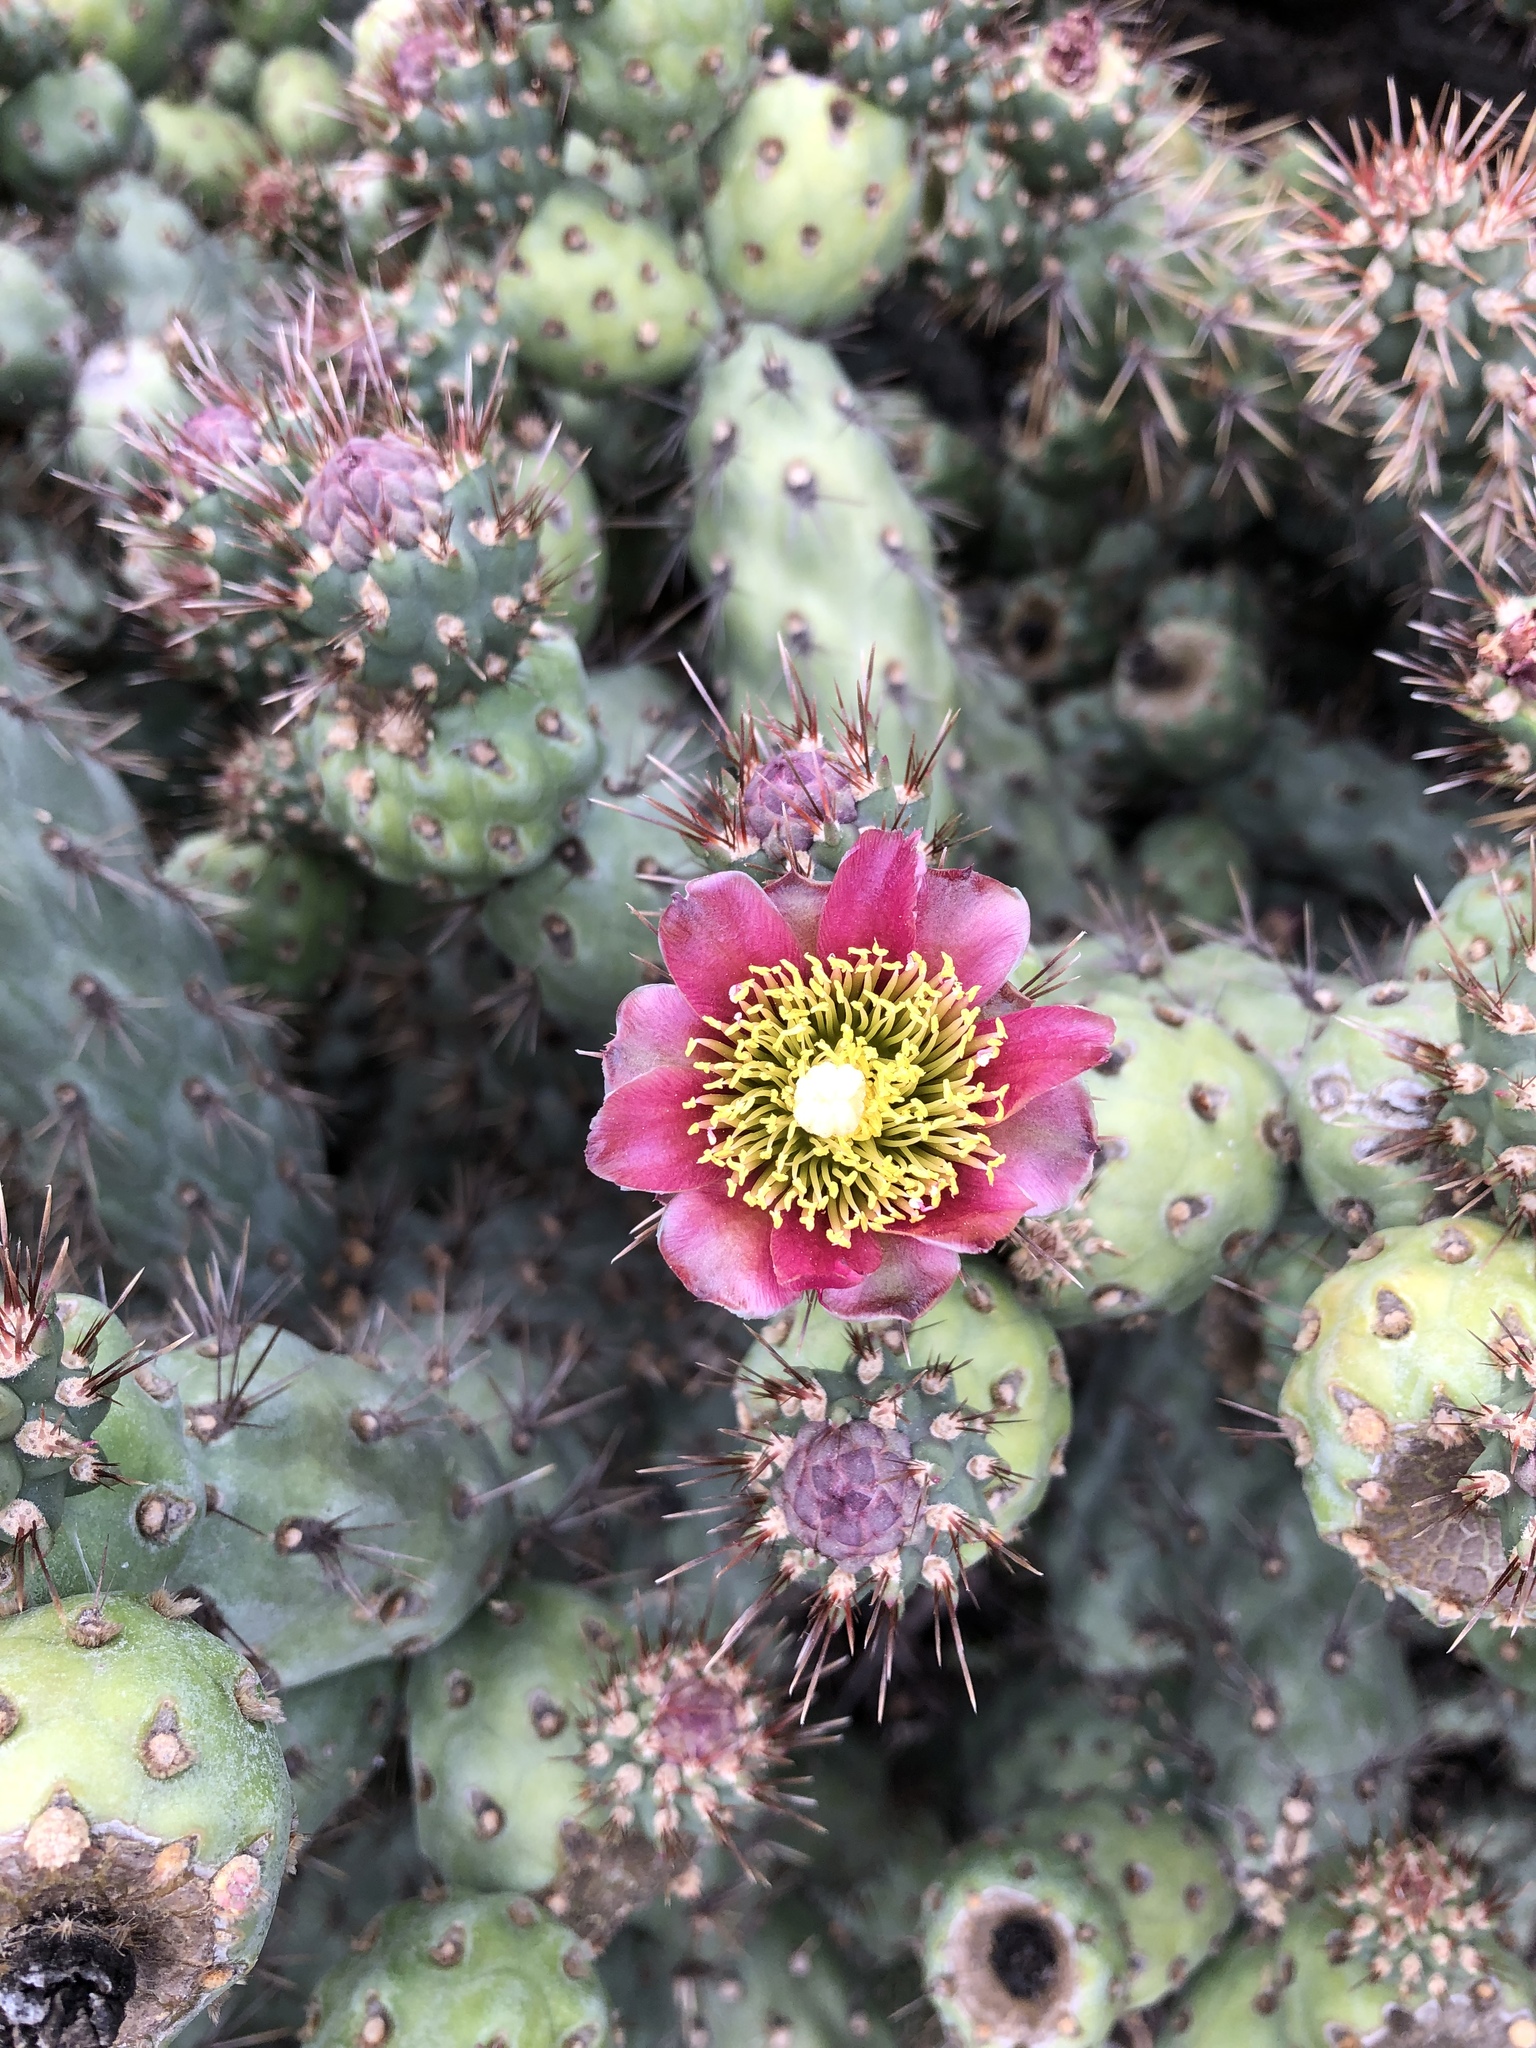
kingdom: Plantae
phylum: Tracheophyta
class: Magnoliopsida
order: Caryophyllales
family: Cactaceae
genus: Cylindropuntia
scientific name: Cylindropuntia prolifera
